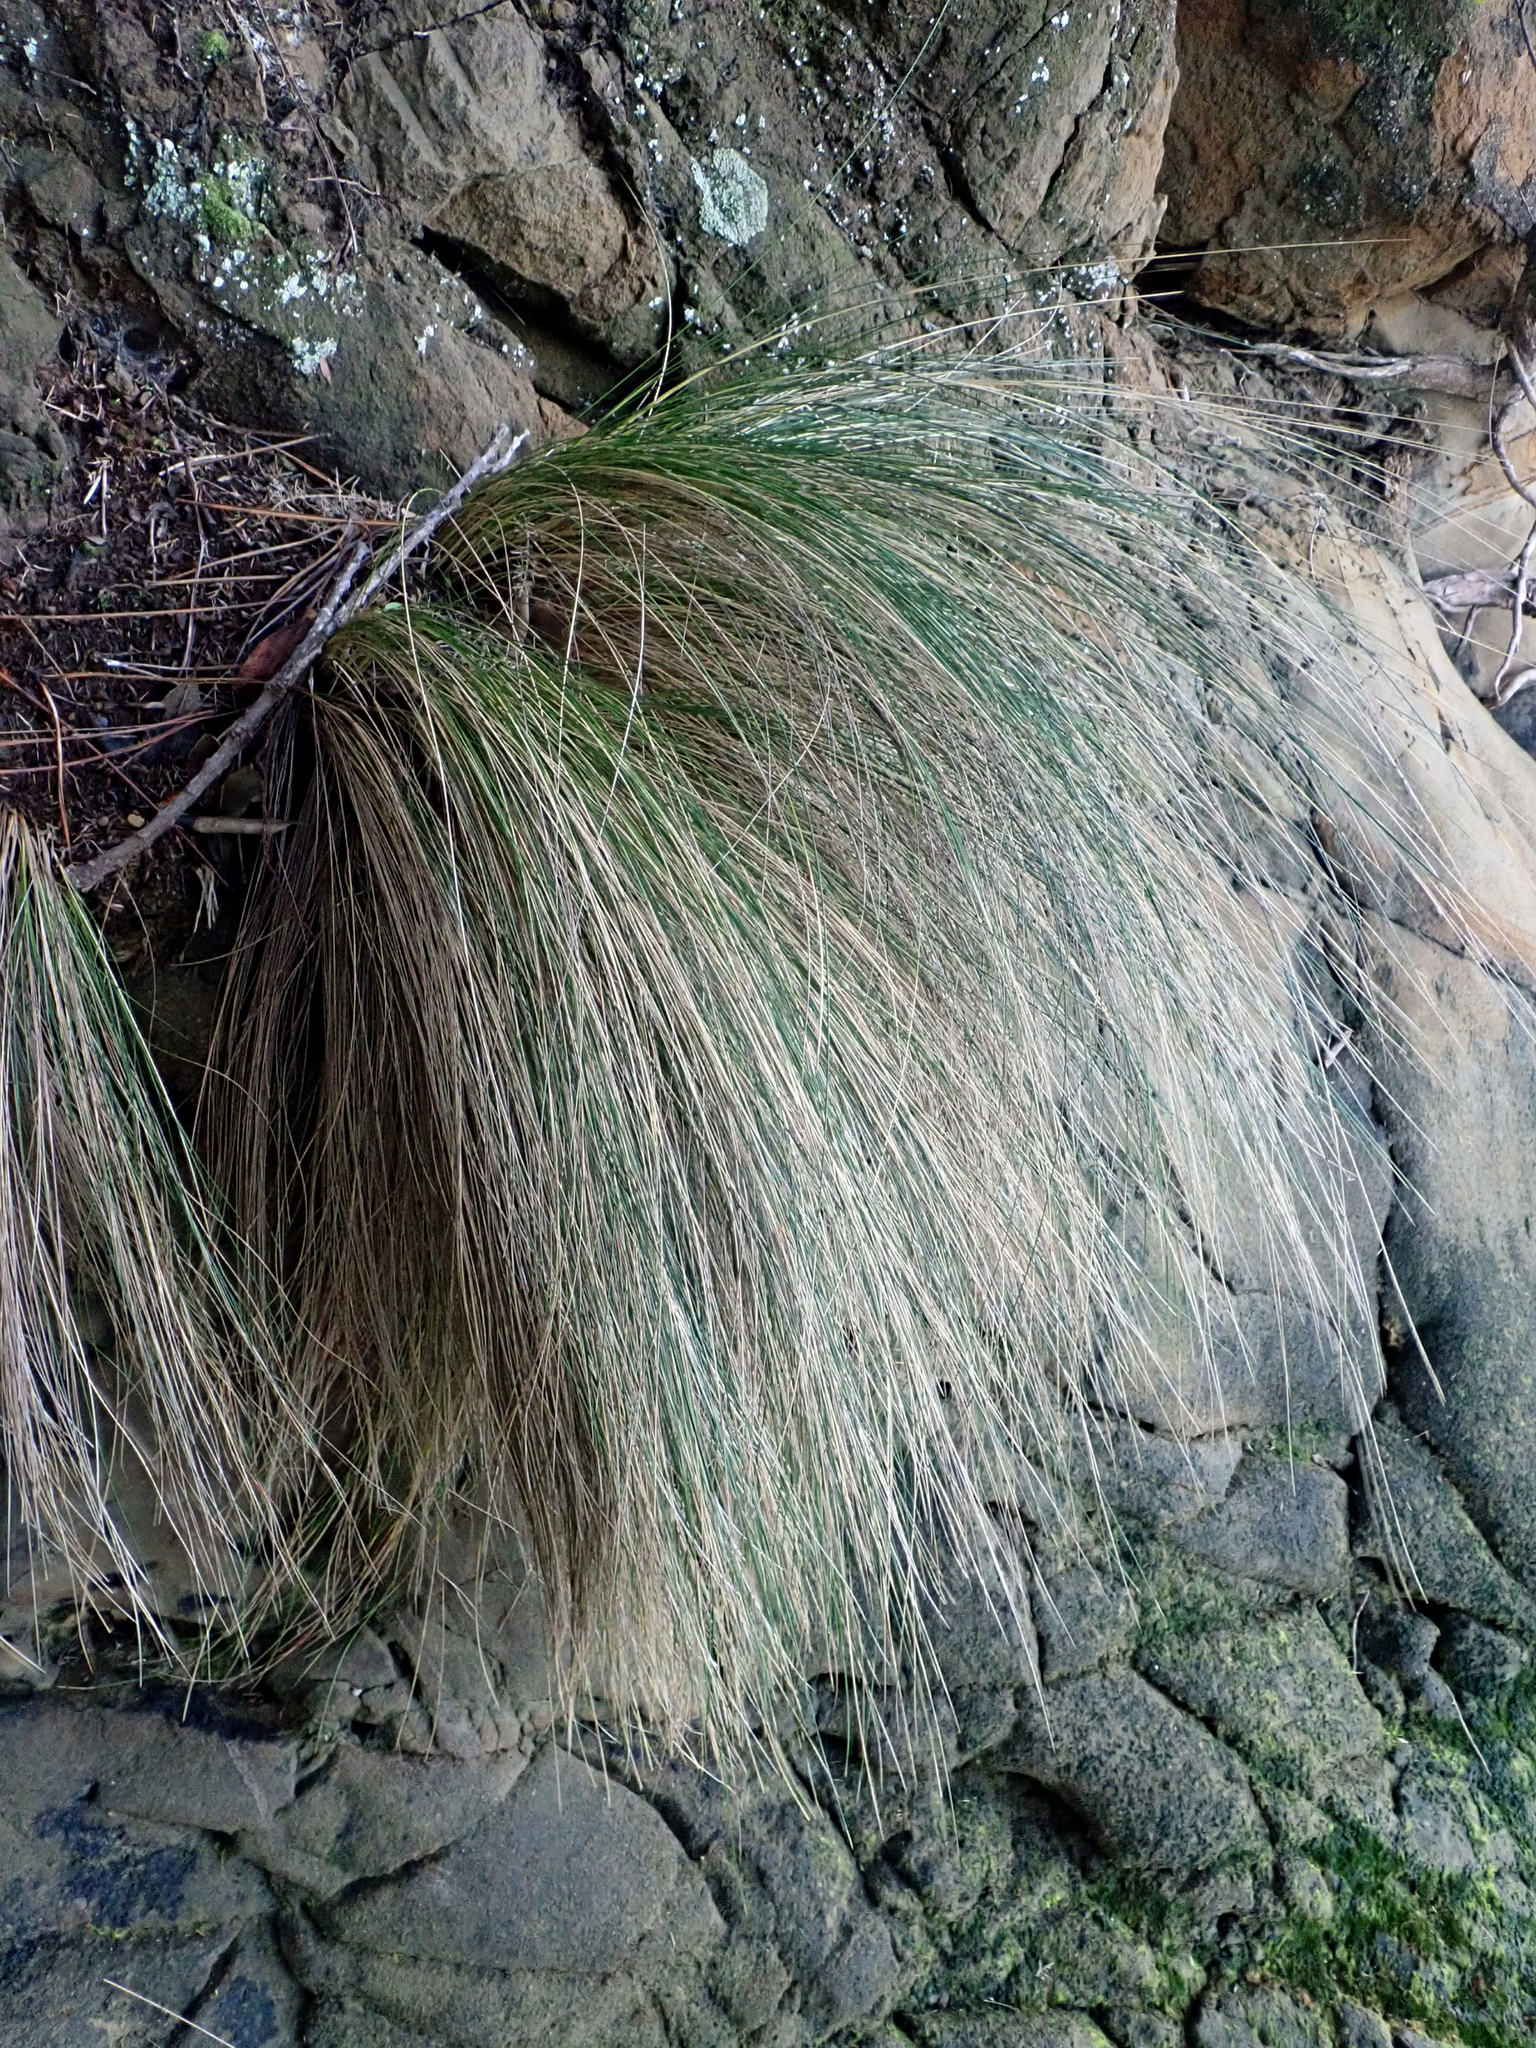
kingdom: Plantae
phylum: Tracheophyta
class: Liliopsida
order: Poales
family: Poaceae
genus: Austrostipa
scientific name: Austrostipa stipoides
